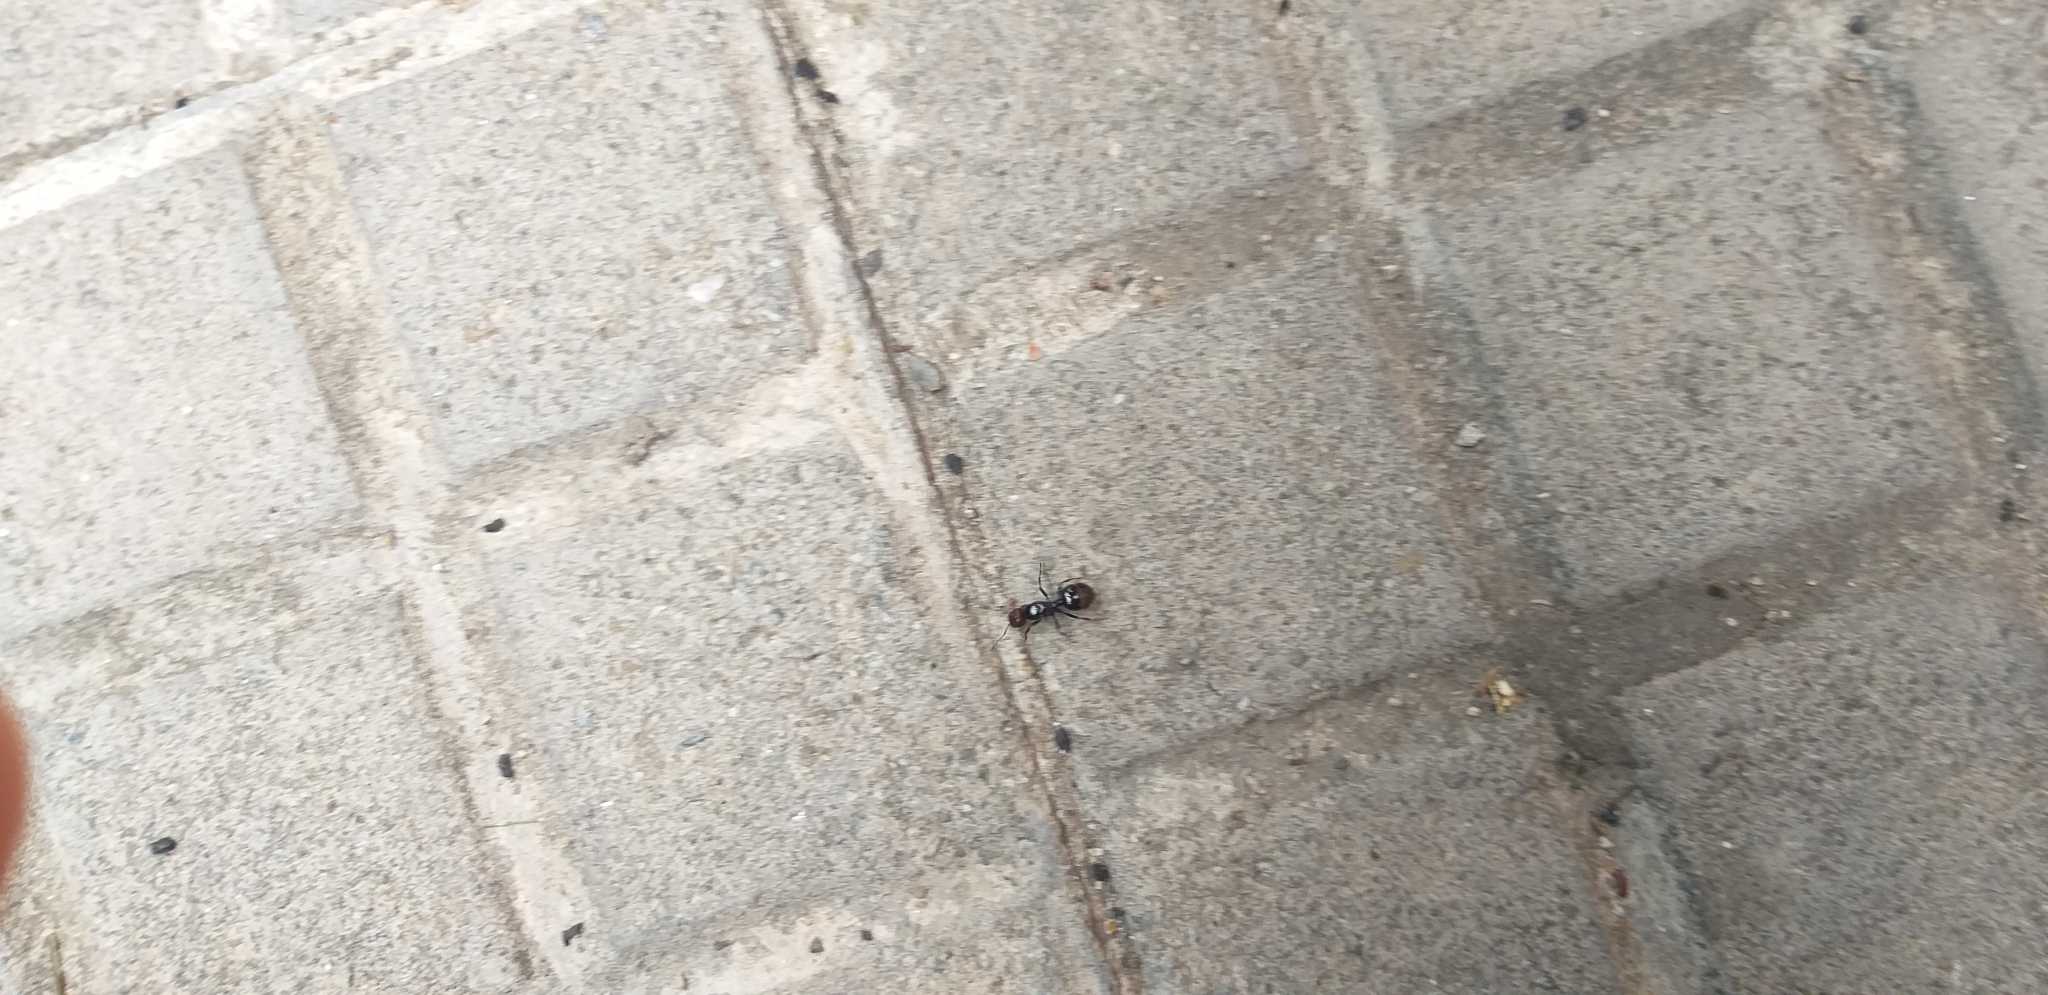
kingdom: Animalia
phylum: Arthropoda
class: Insecta
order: Hymenoptera
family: Formicidae
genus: Messor
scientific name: Messor barbarus
